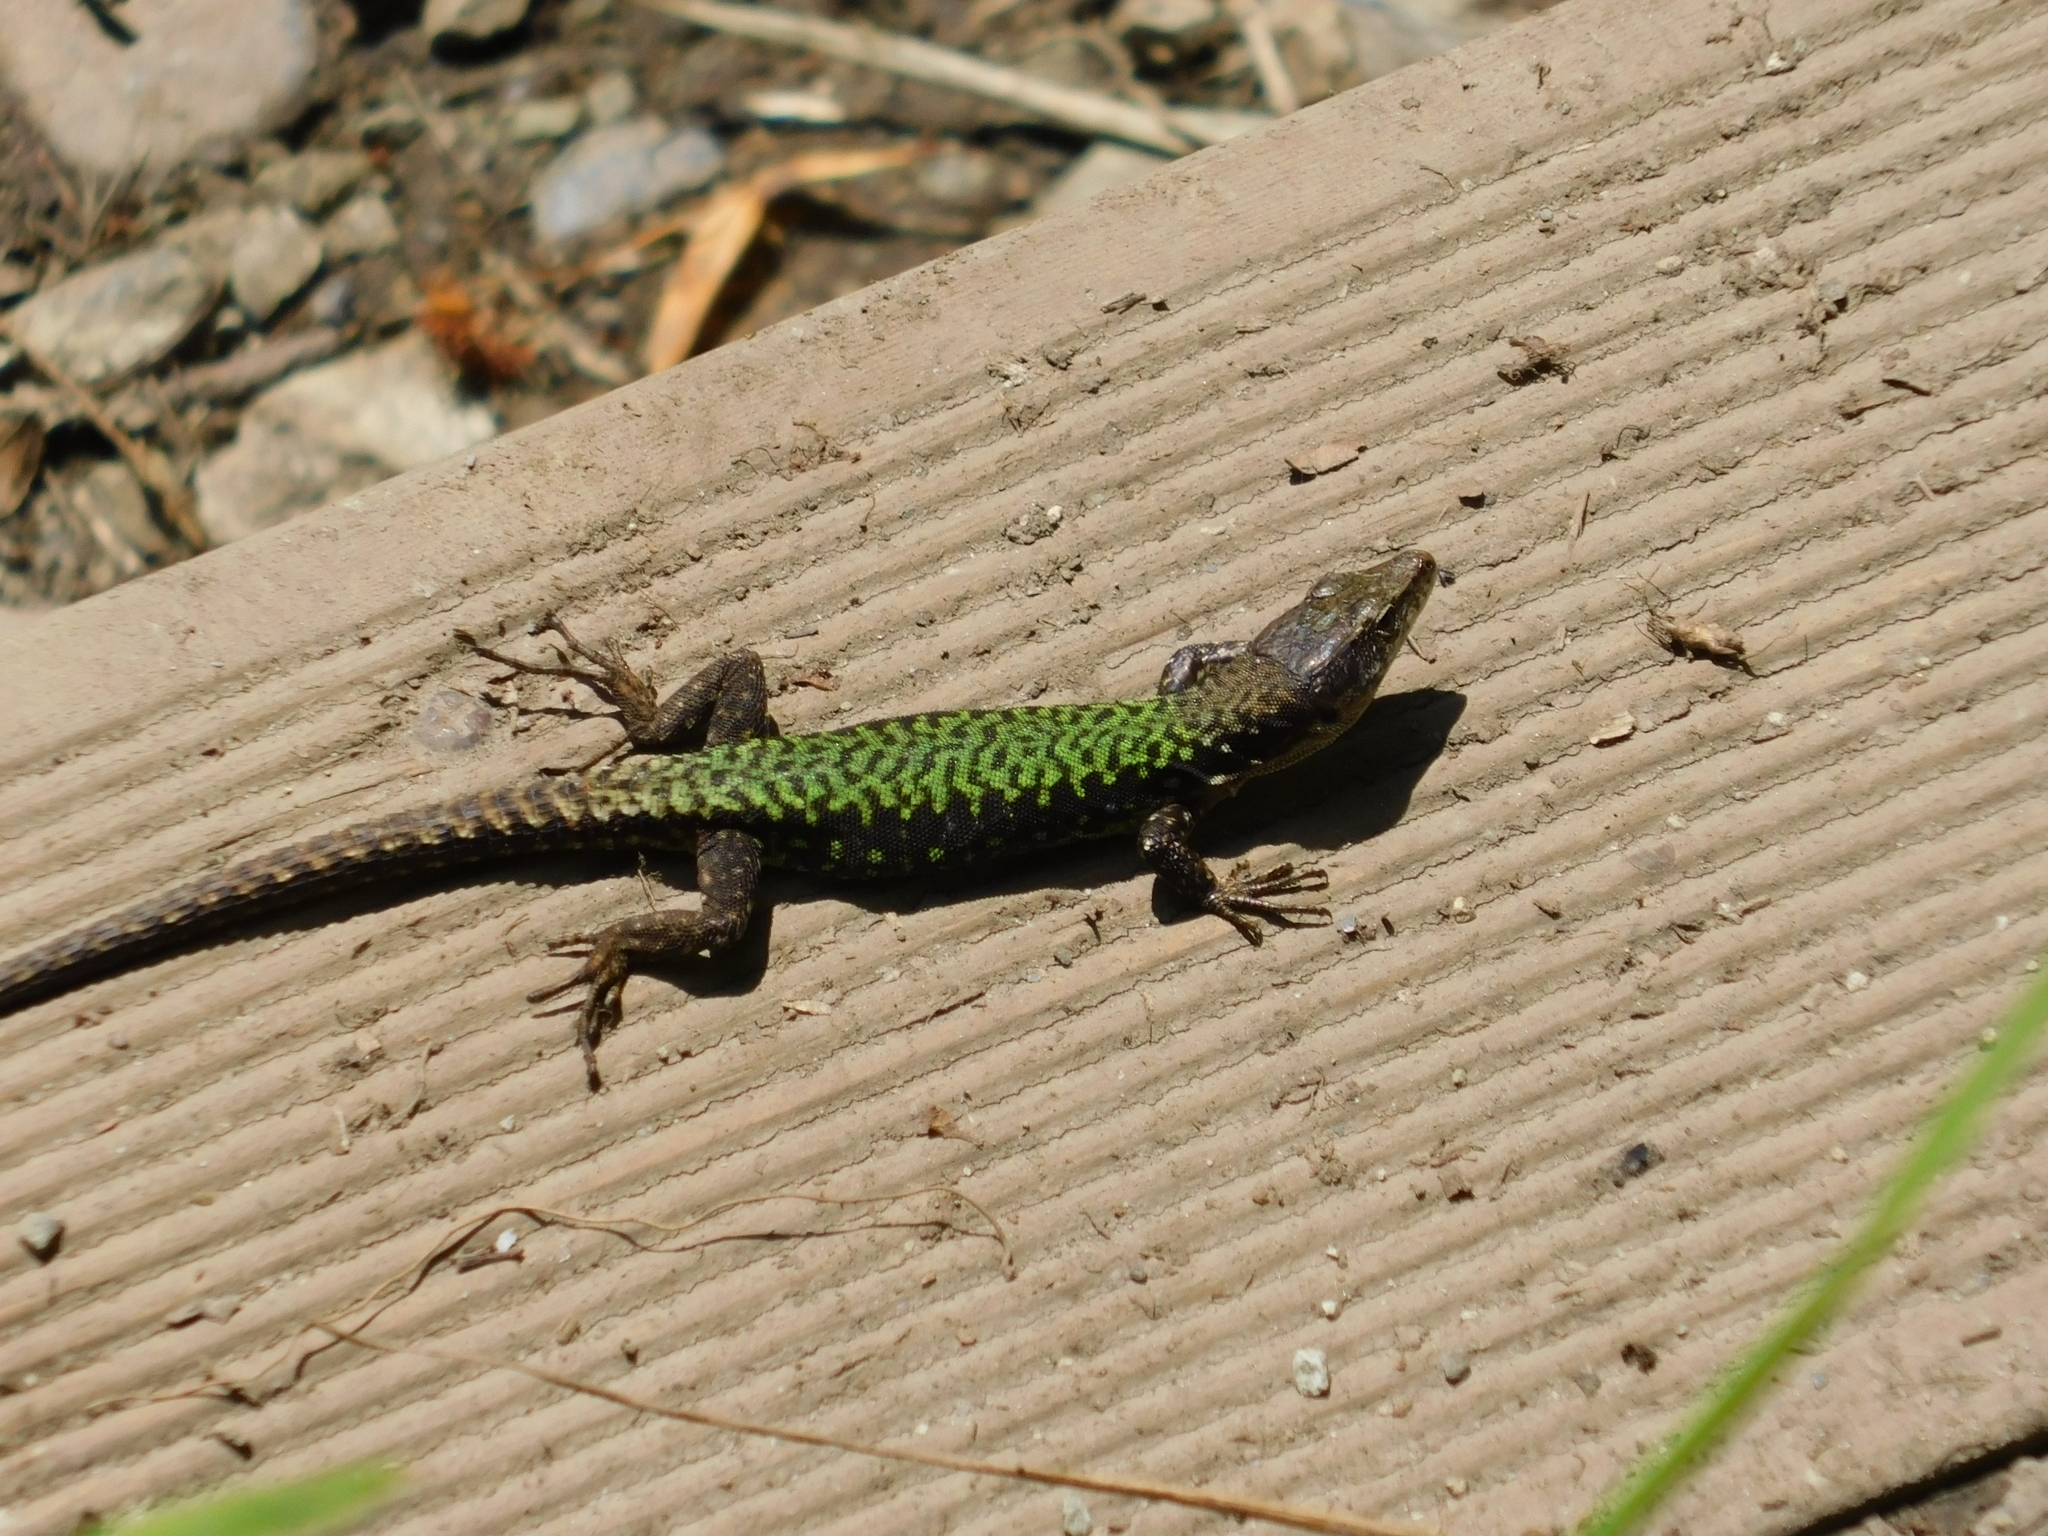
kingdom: Animalia
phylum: Chordata
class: Squamata
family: Lacertidae
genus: Darevskia
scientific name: Darevskia brauneri
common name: Brauner's rock lizard
